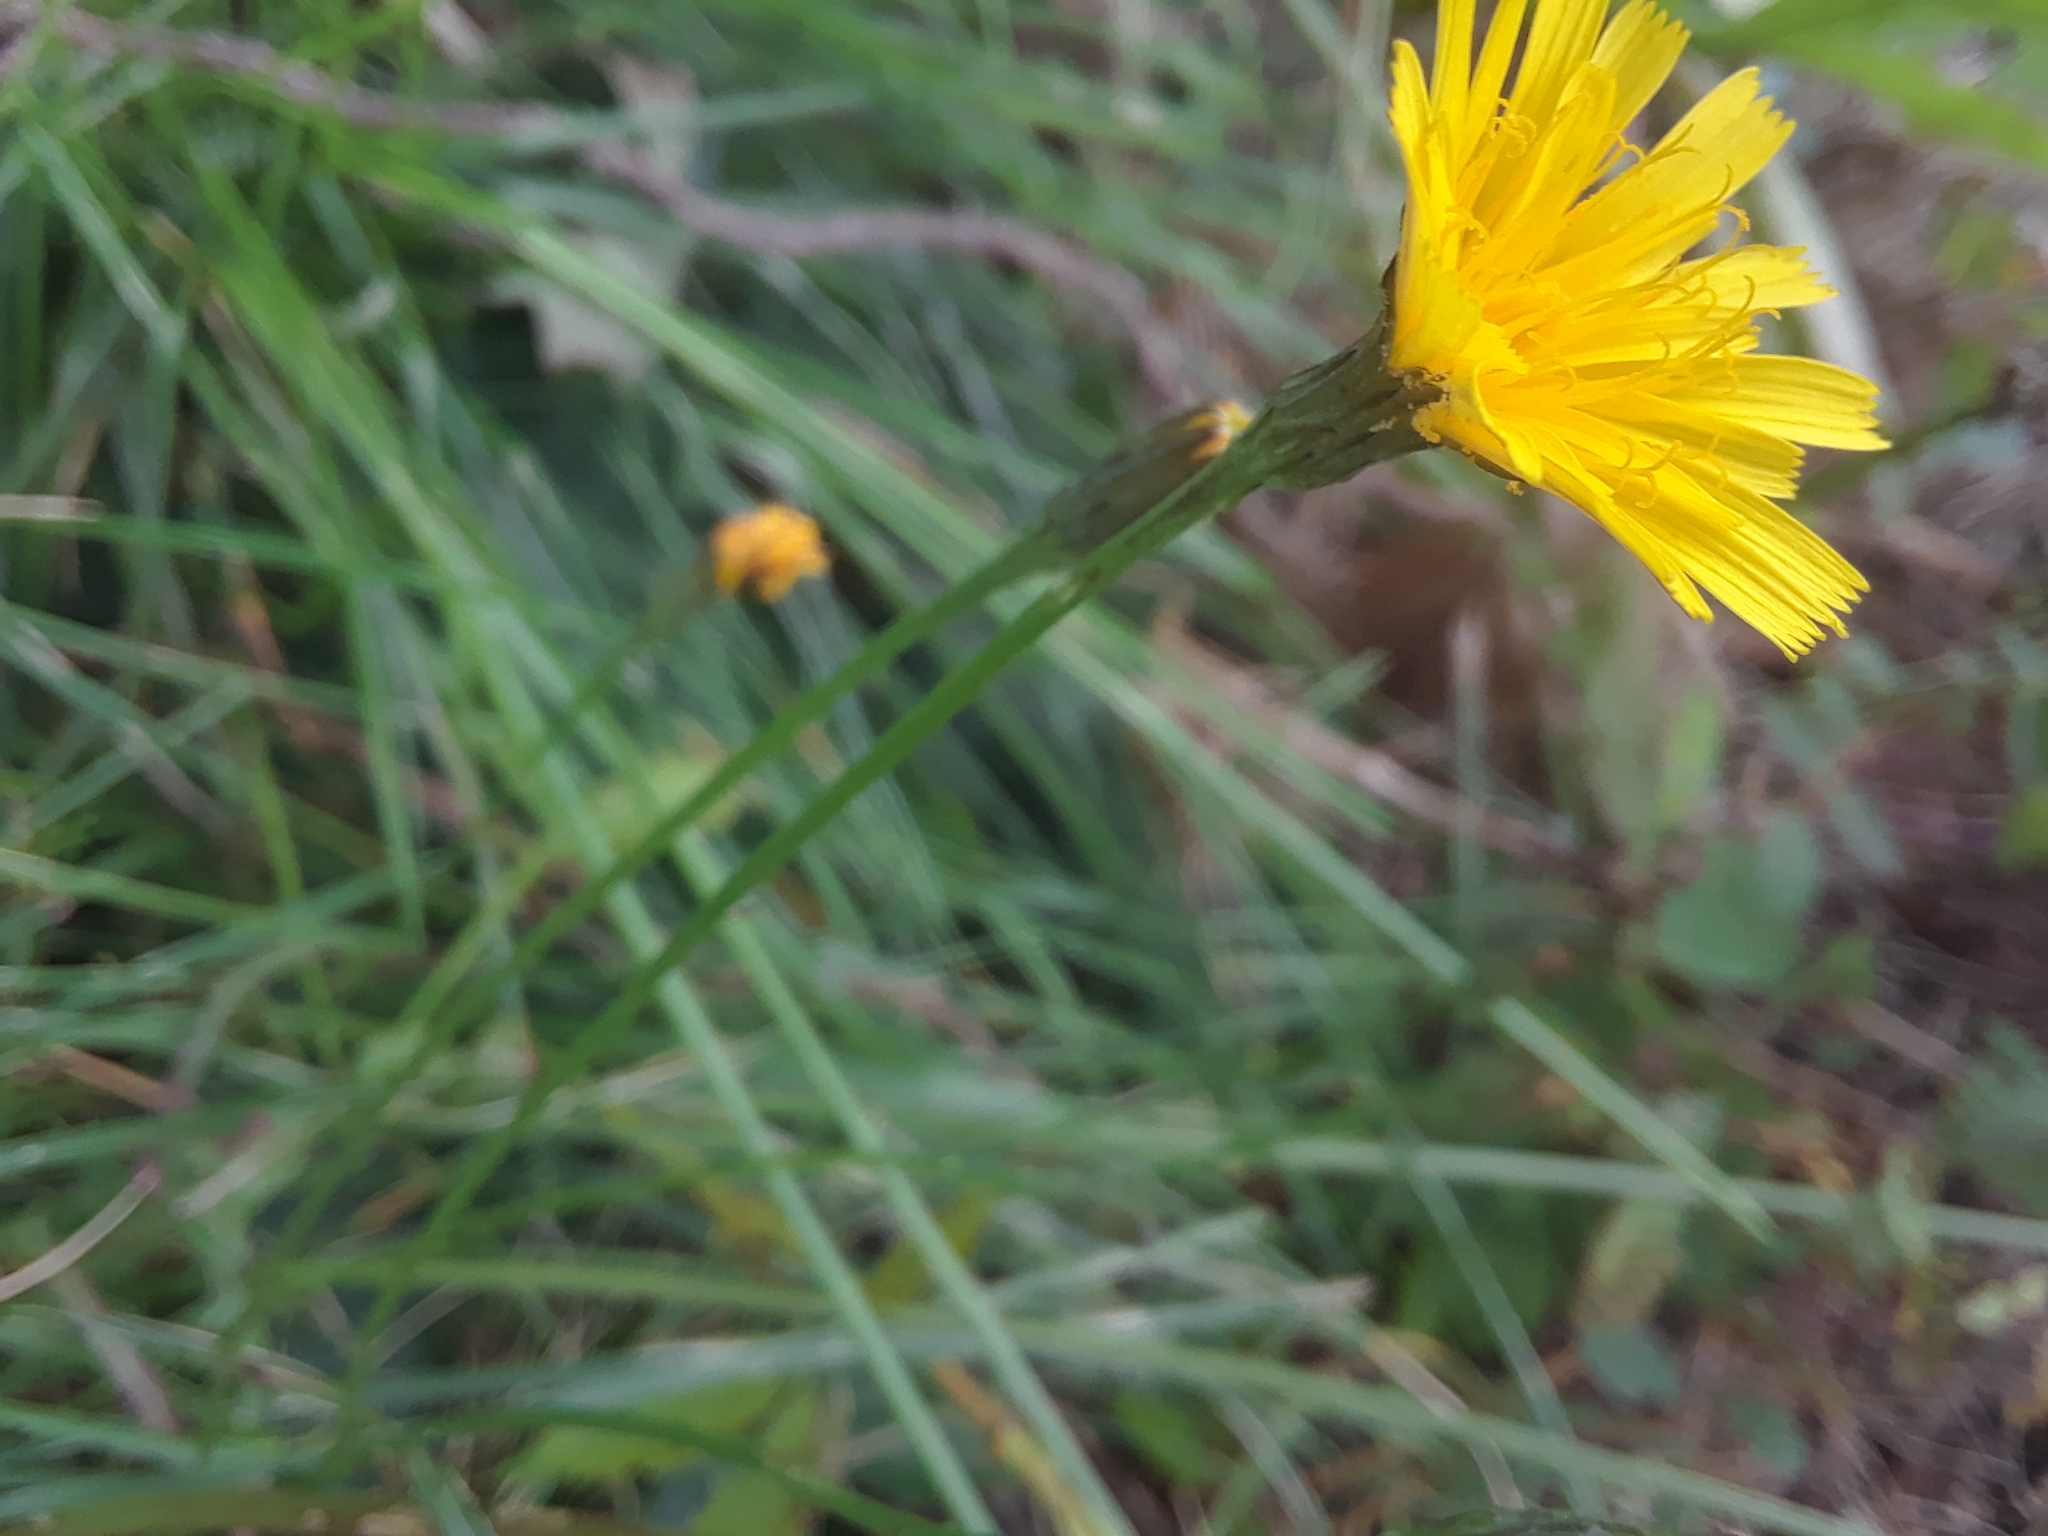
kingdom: Plantae
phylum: Tracheophyta
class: Magnoliopsida
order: Asterales
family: Asteraceae
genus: Scorzoneroides
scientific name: Scorzoneroides autumnalis
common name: Autumn hawkbit
